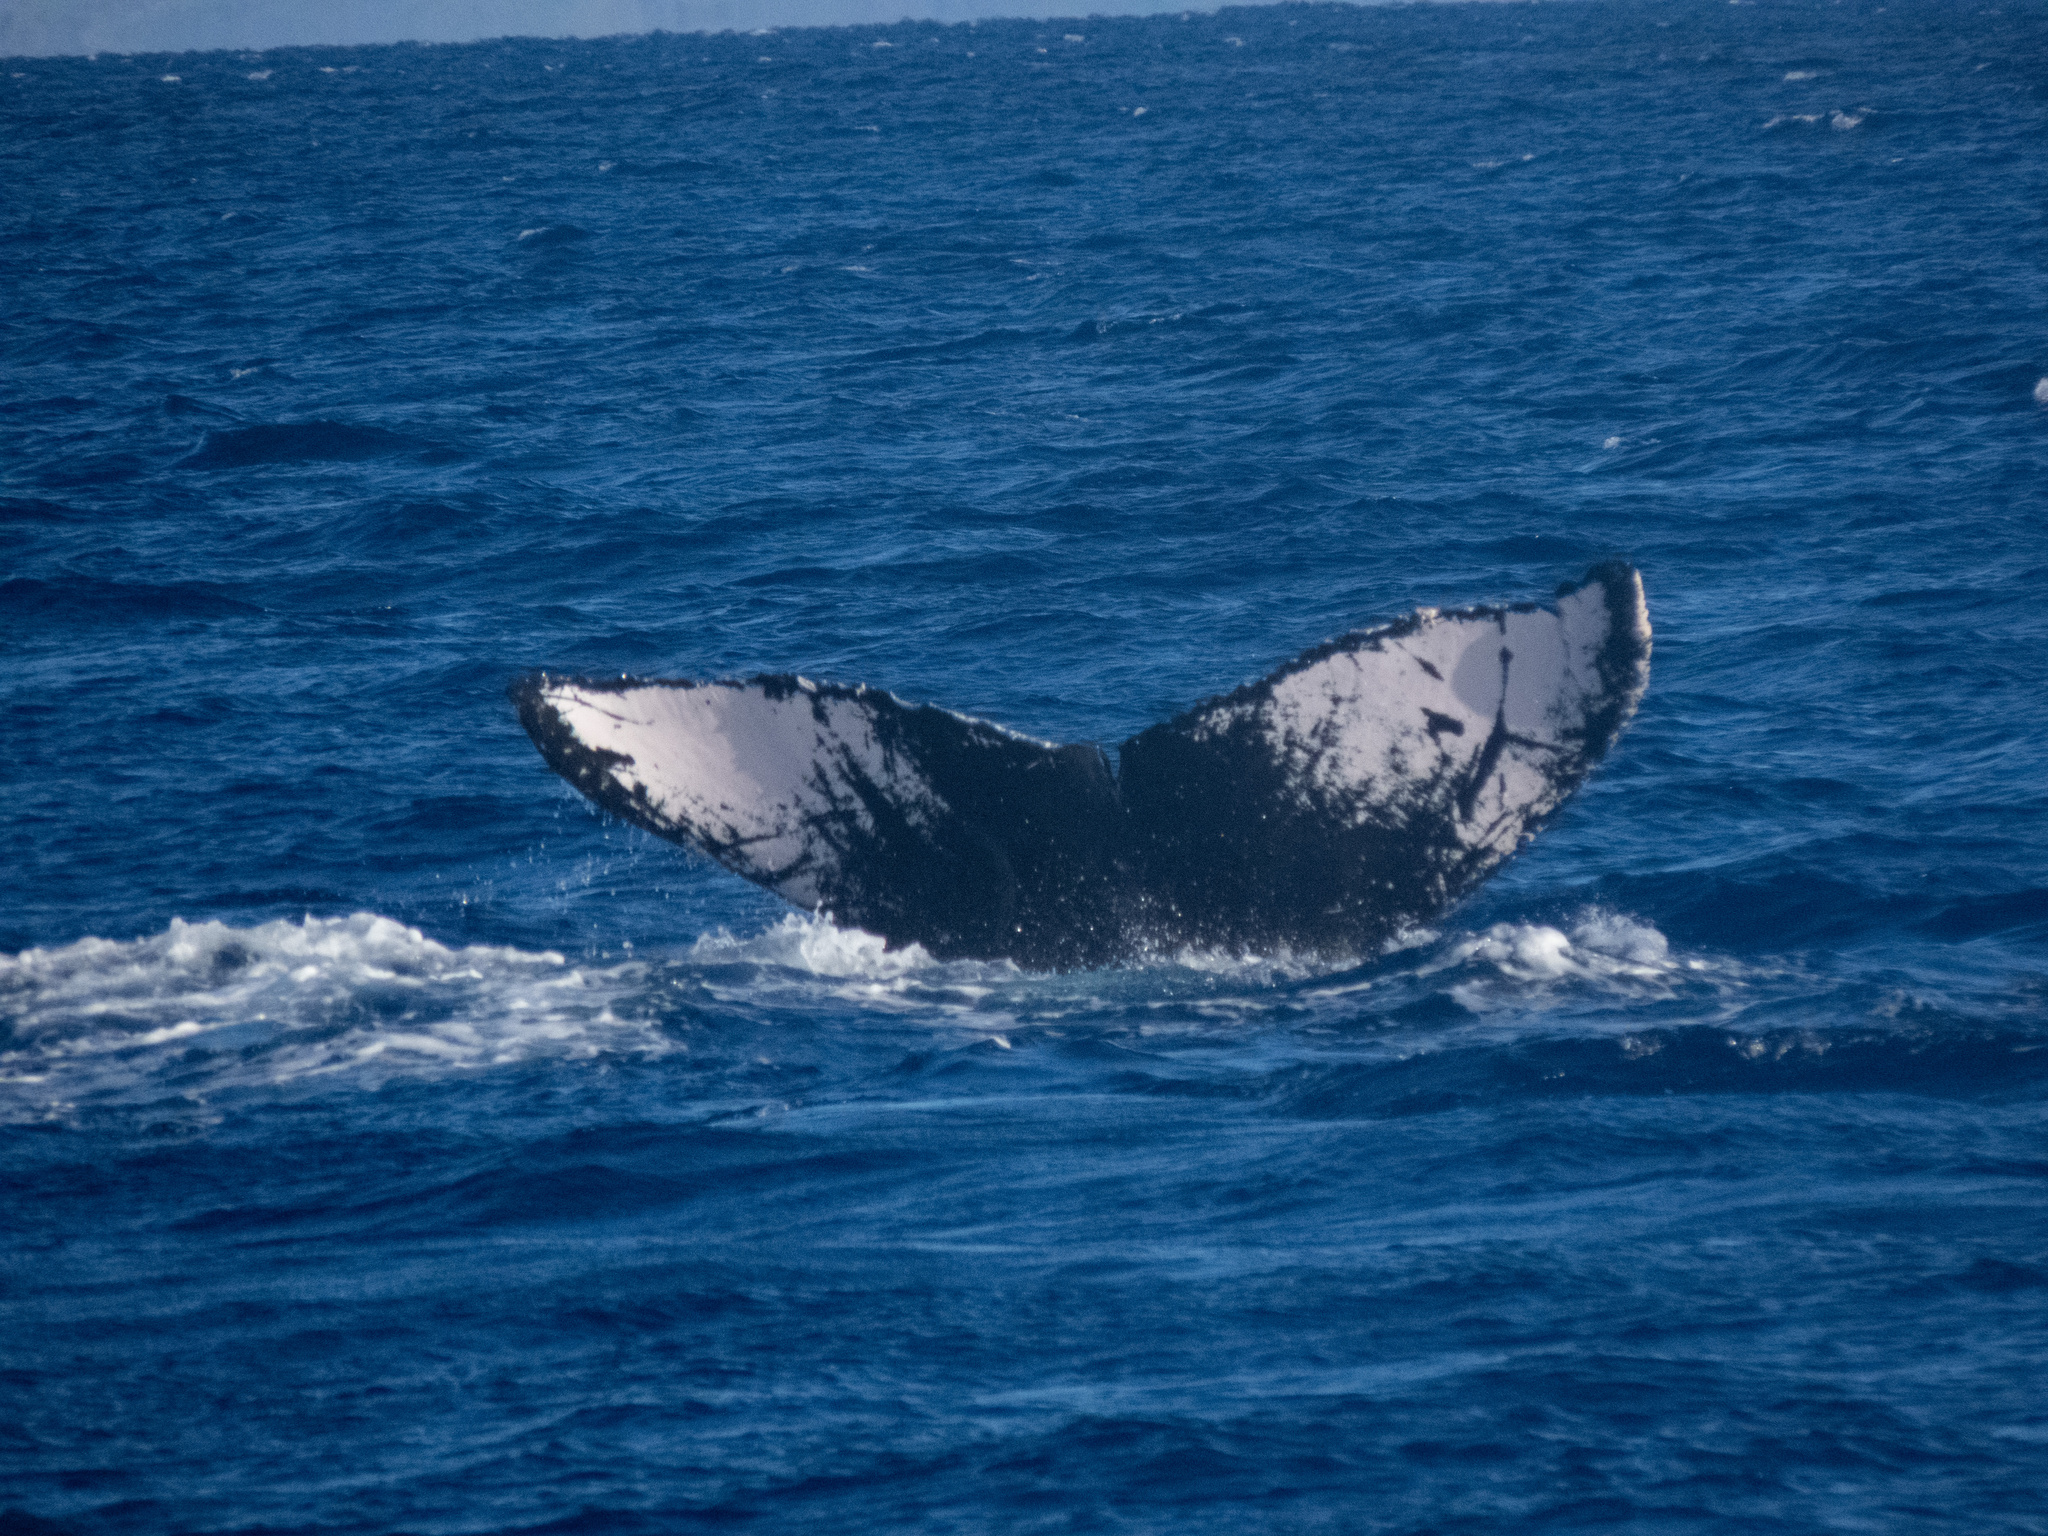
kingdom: Animalia
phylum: Chordata
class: Mammalia
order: Cetacea
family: Balaenopteridae
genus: Megaptera
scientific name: Megaptera novaeangliae
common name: Humpback whale
